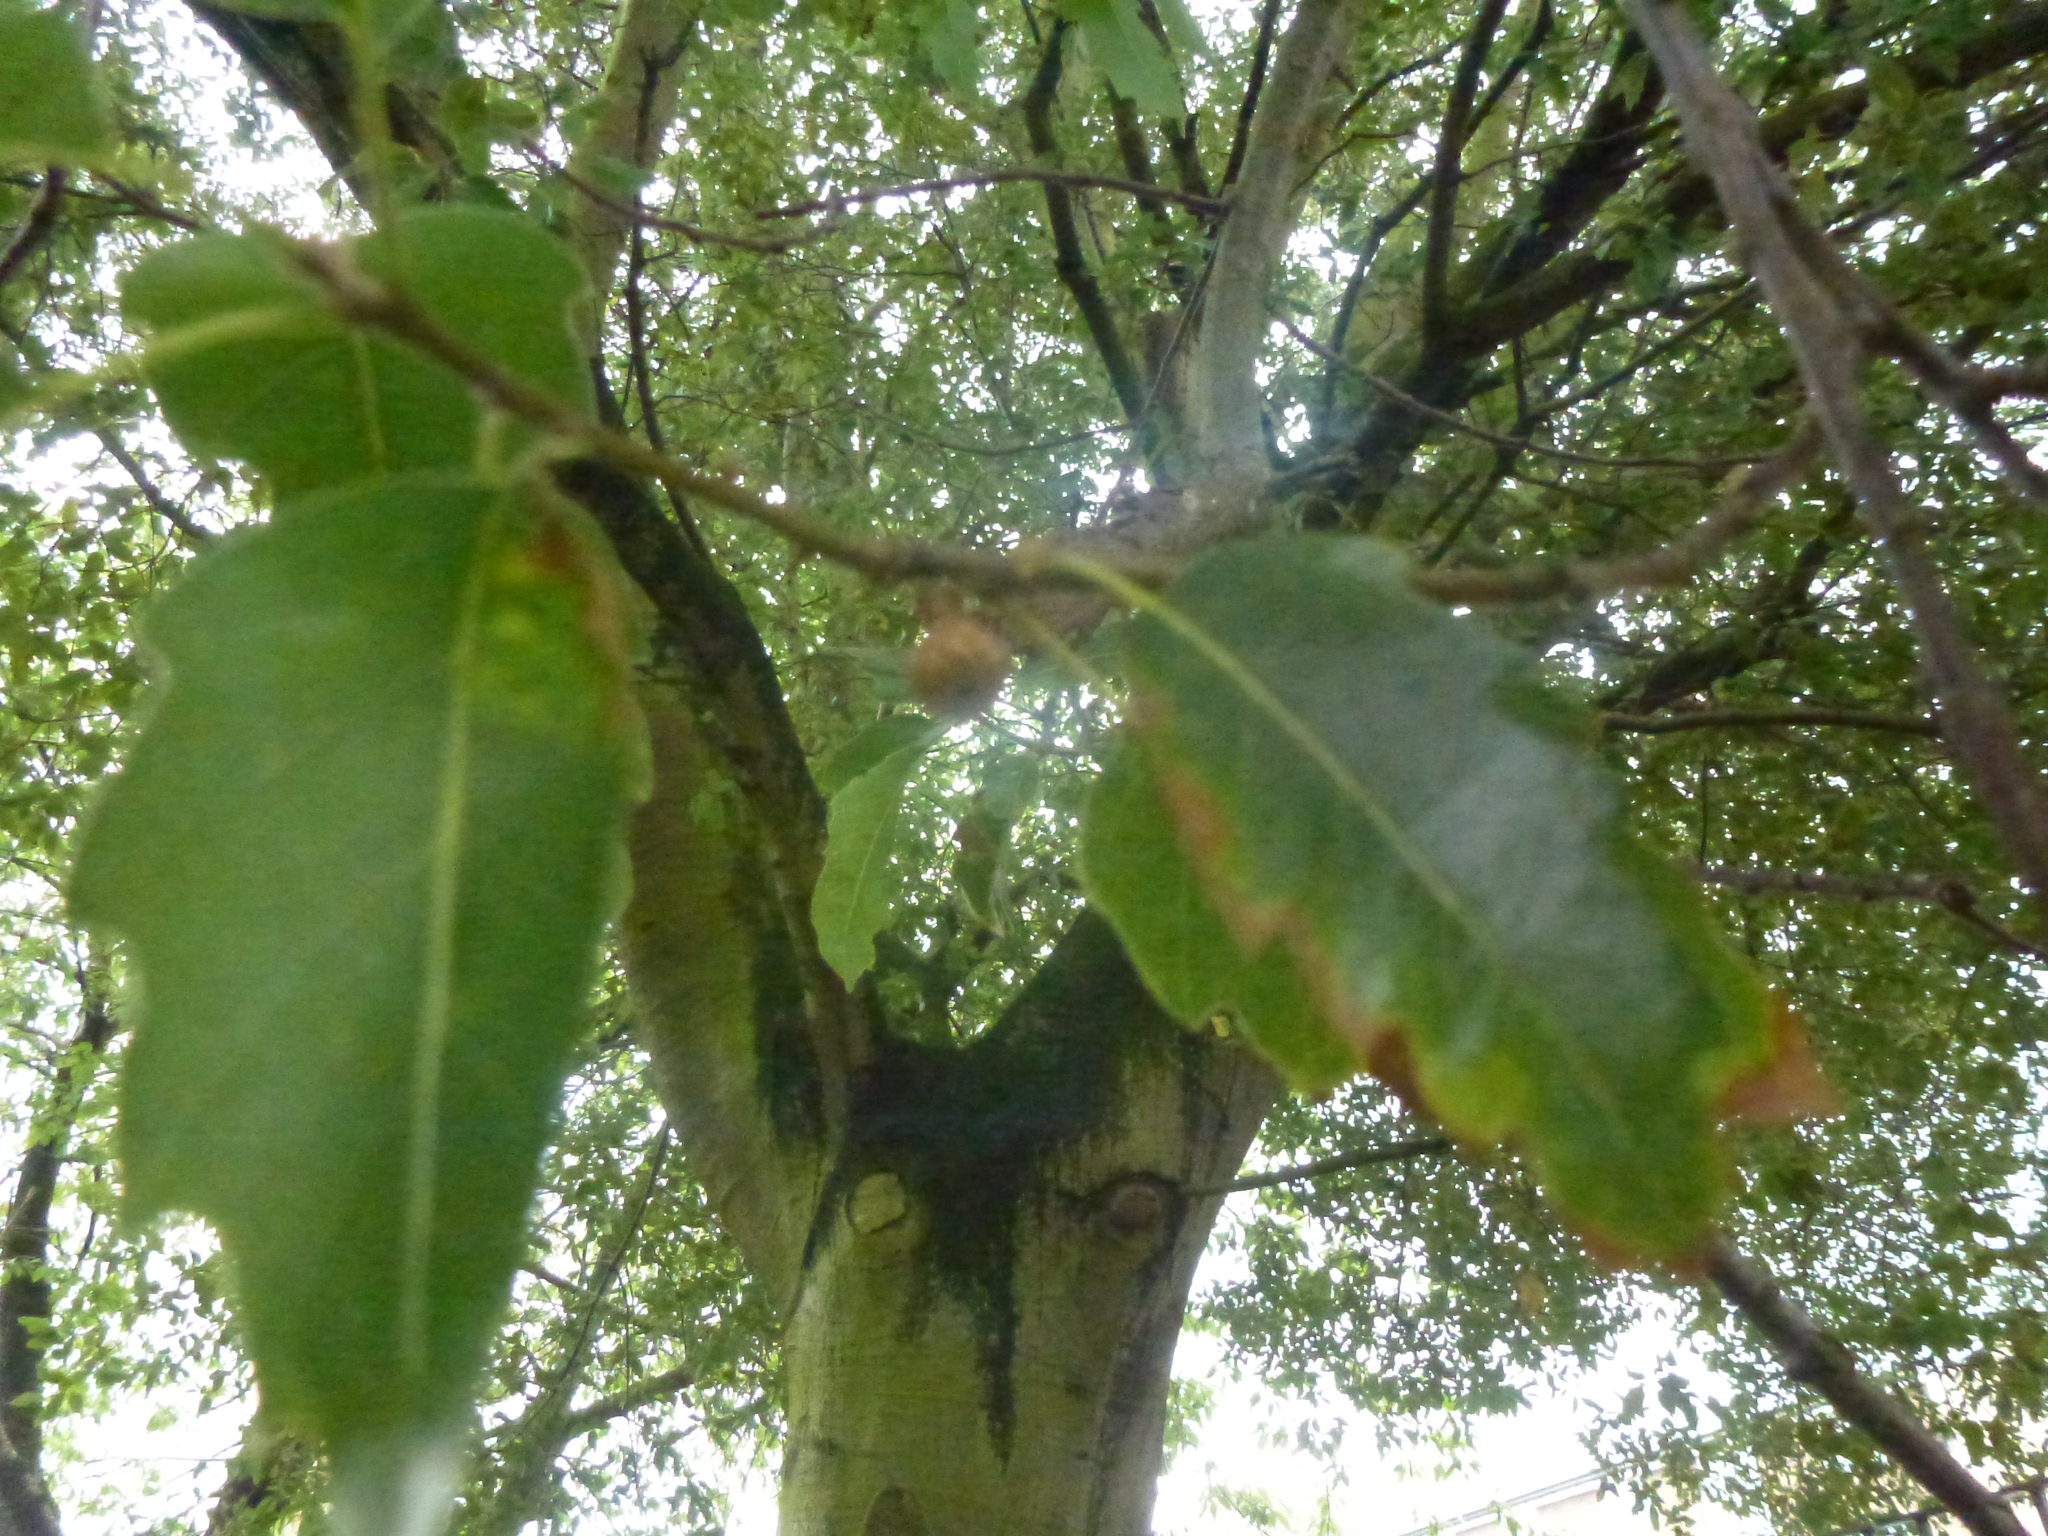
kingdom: Plantae
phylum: Tracheophyta
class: Magnoliopsida
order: Fagales
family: Fagaceae
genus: Quercus
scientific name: Quercus ilex
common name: Evergreen oak
